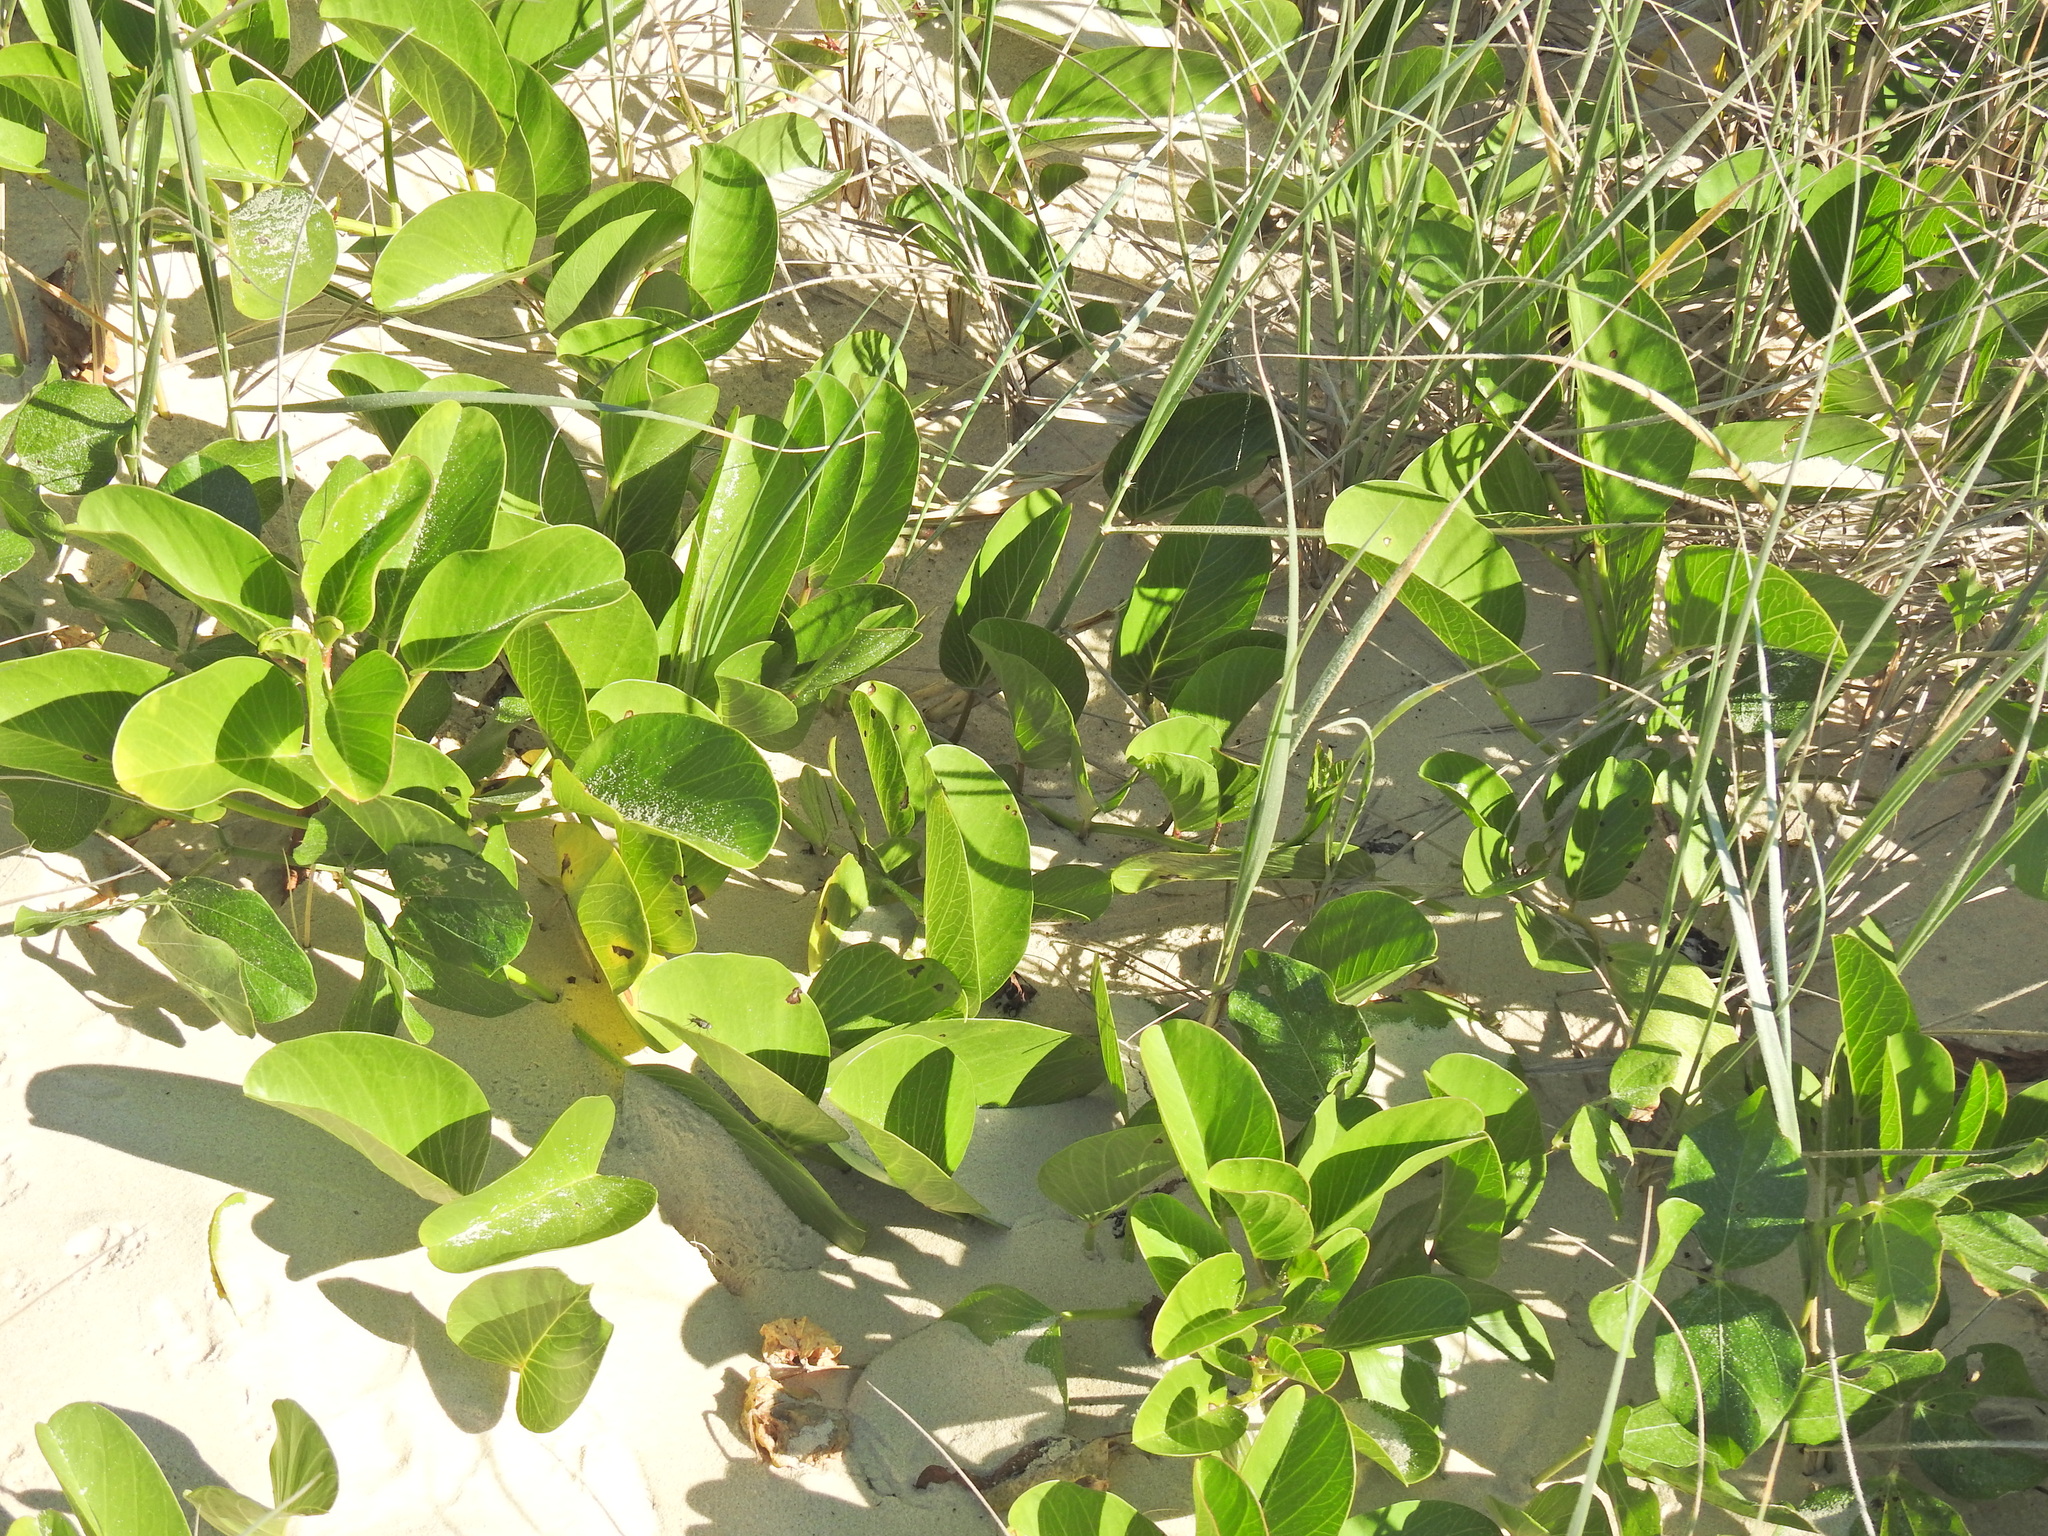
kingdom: Plantae
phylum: Tracheophyta
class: Magnoliopsida
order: Solanales
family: Convolvulaceae
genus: Ipomoea
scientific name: Ipomoea pes-caprae
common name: Beach morning glory
